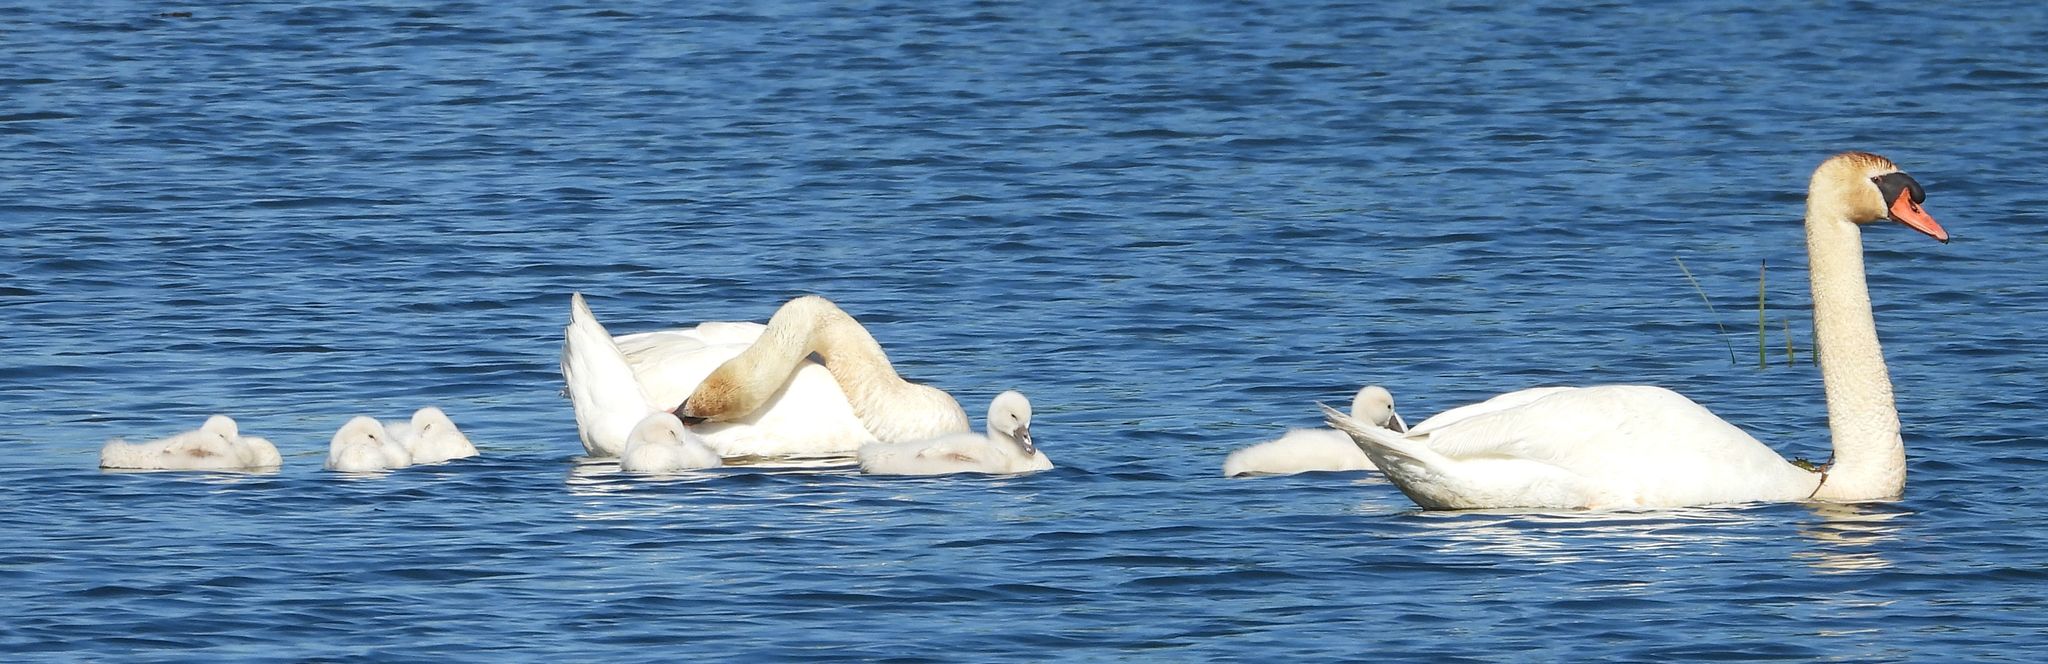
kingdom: Animalia
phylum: Chordata
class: Aves
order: Anseriformes
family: Anatidae
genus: Cygnus
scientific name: Cygnus olor
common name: Mute swan
